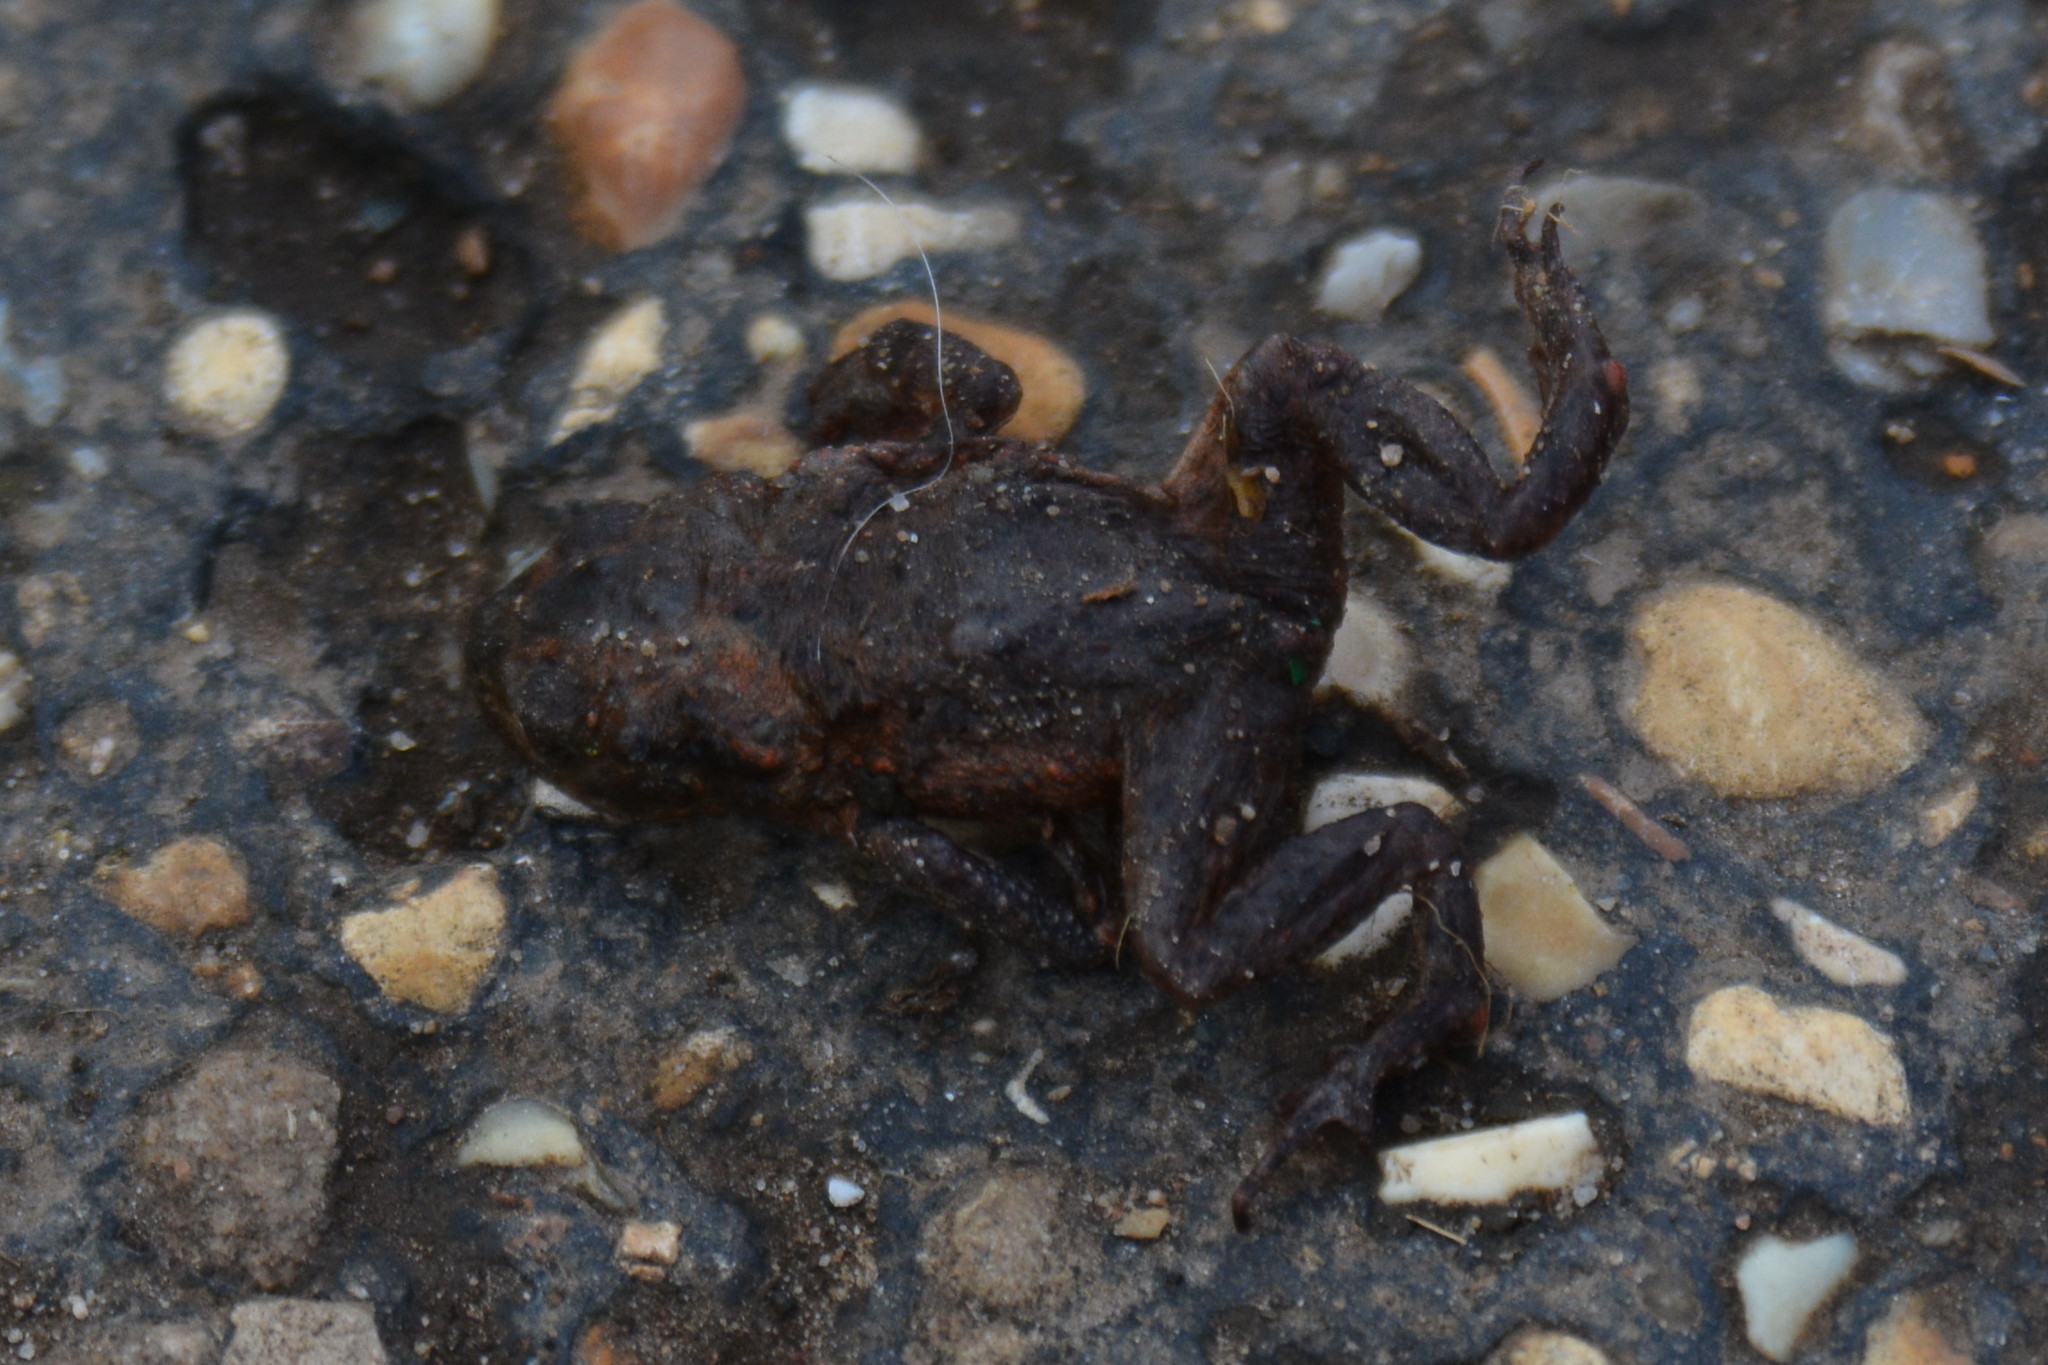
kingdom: Animalia
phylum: Chordata
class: Amphibia
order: Anura
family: Bufonidae
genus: Bufo
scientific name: Bufo bufo
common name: Common toad
